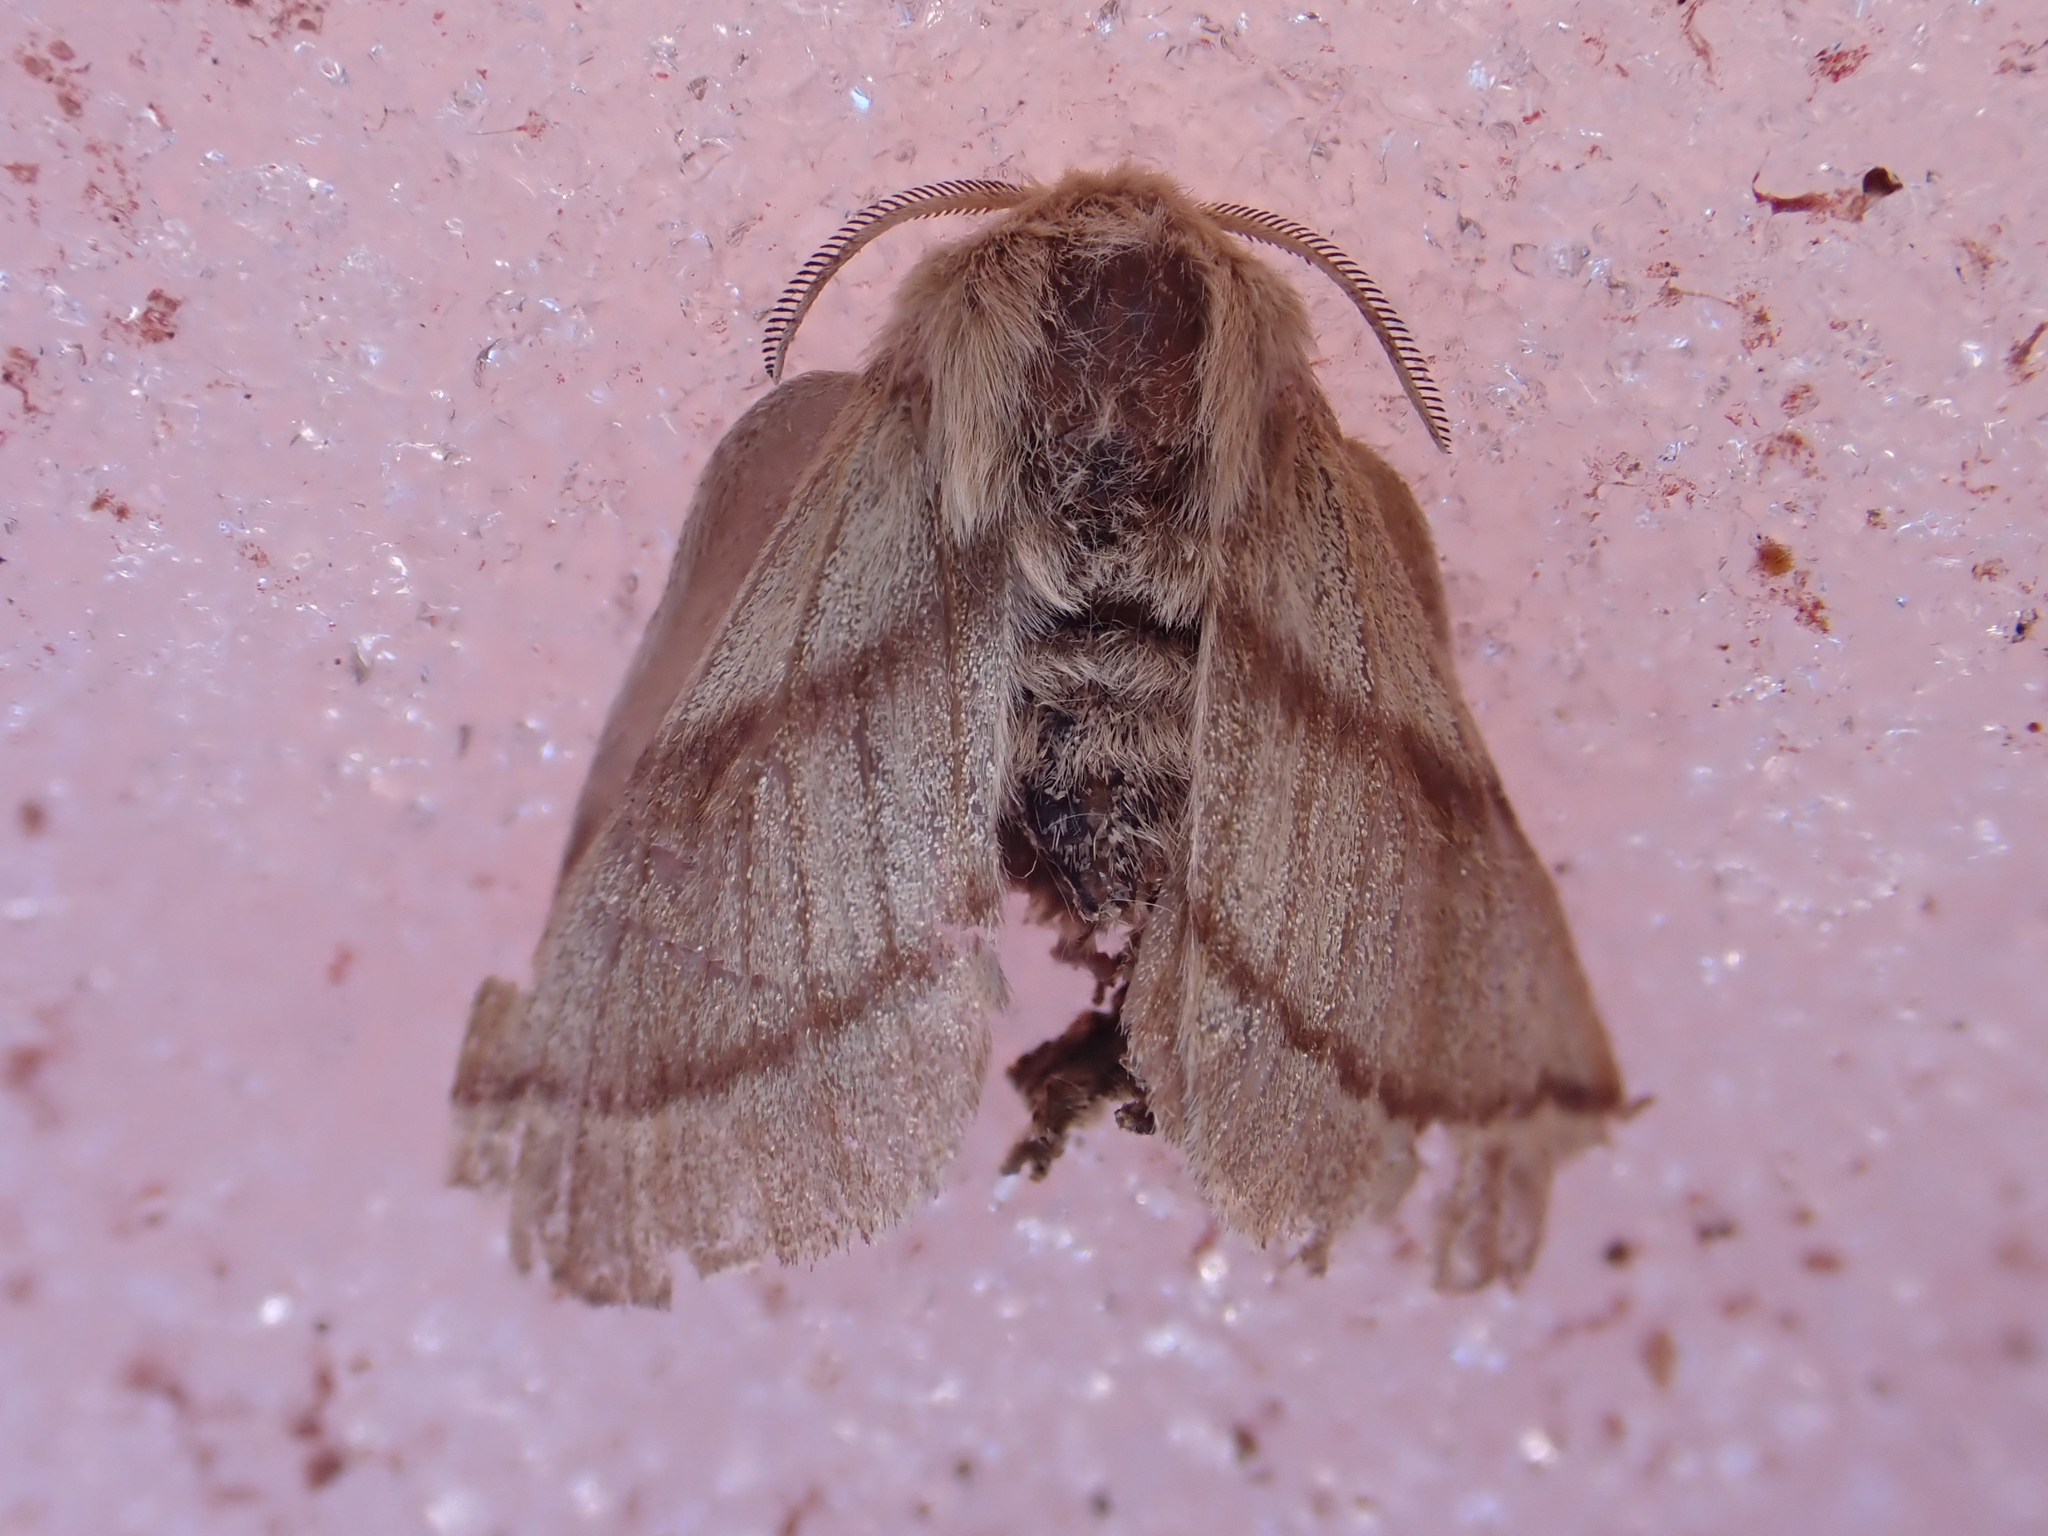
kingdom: Animalia
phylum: Arthropoda
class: Insecta
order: Lepidoptera
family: Lasiocampidae
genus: Malacosoma
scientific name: Malacosoma californica
